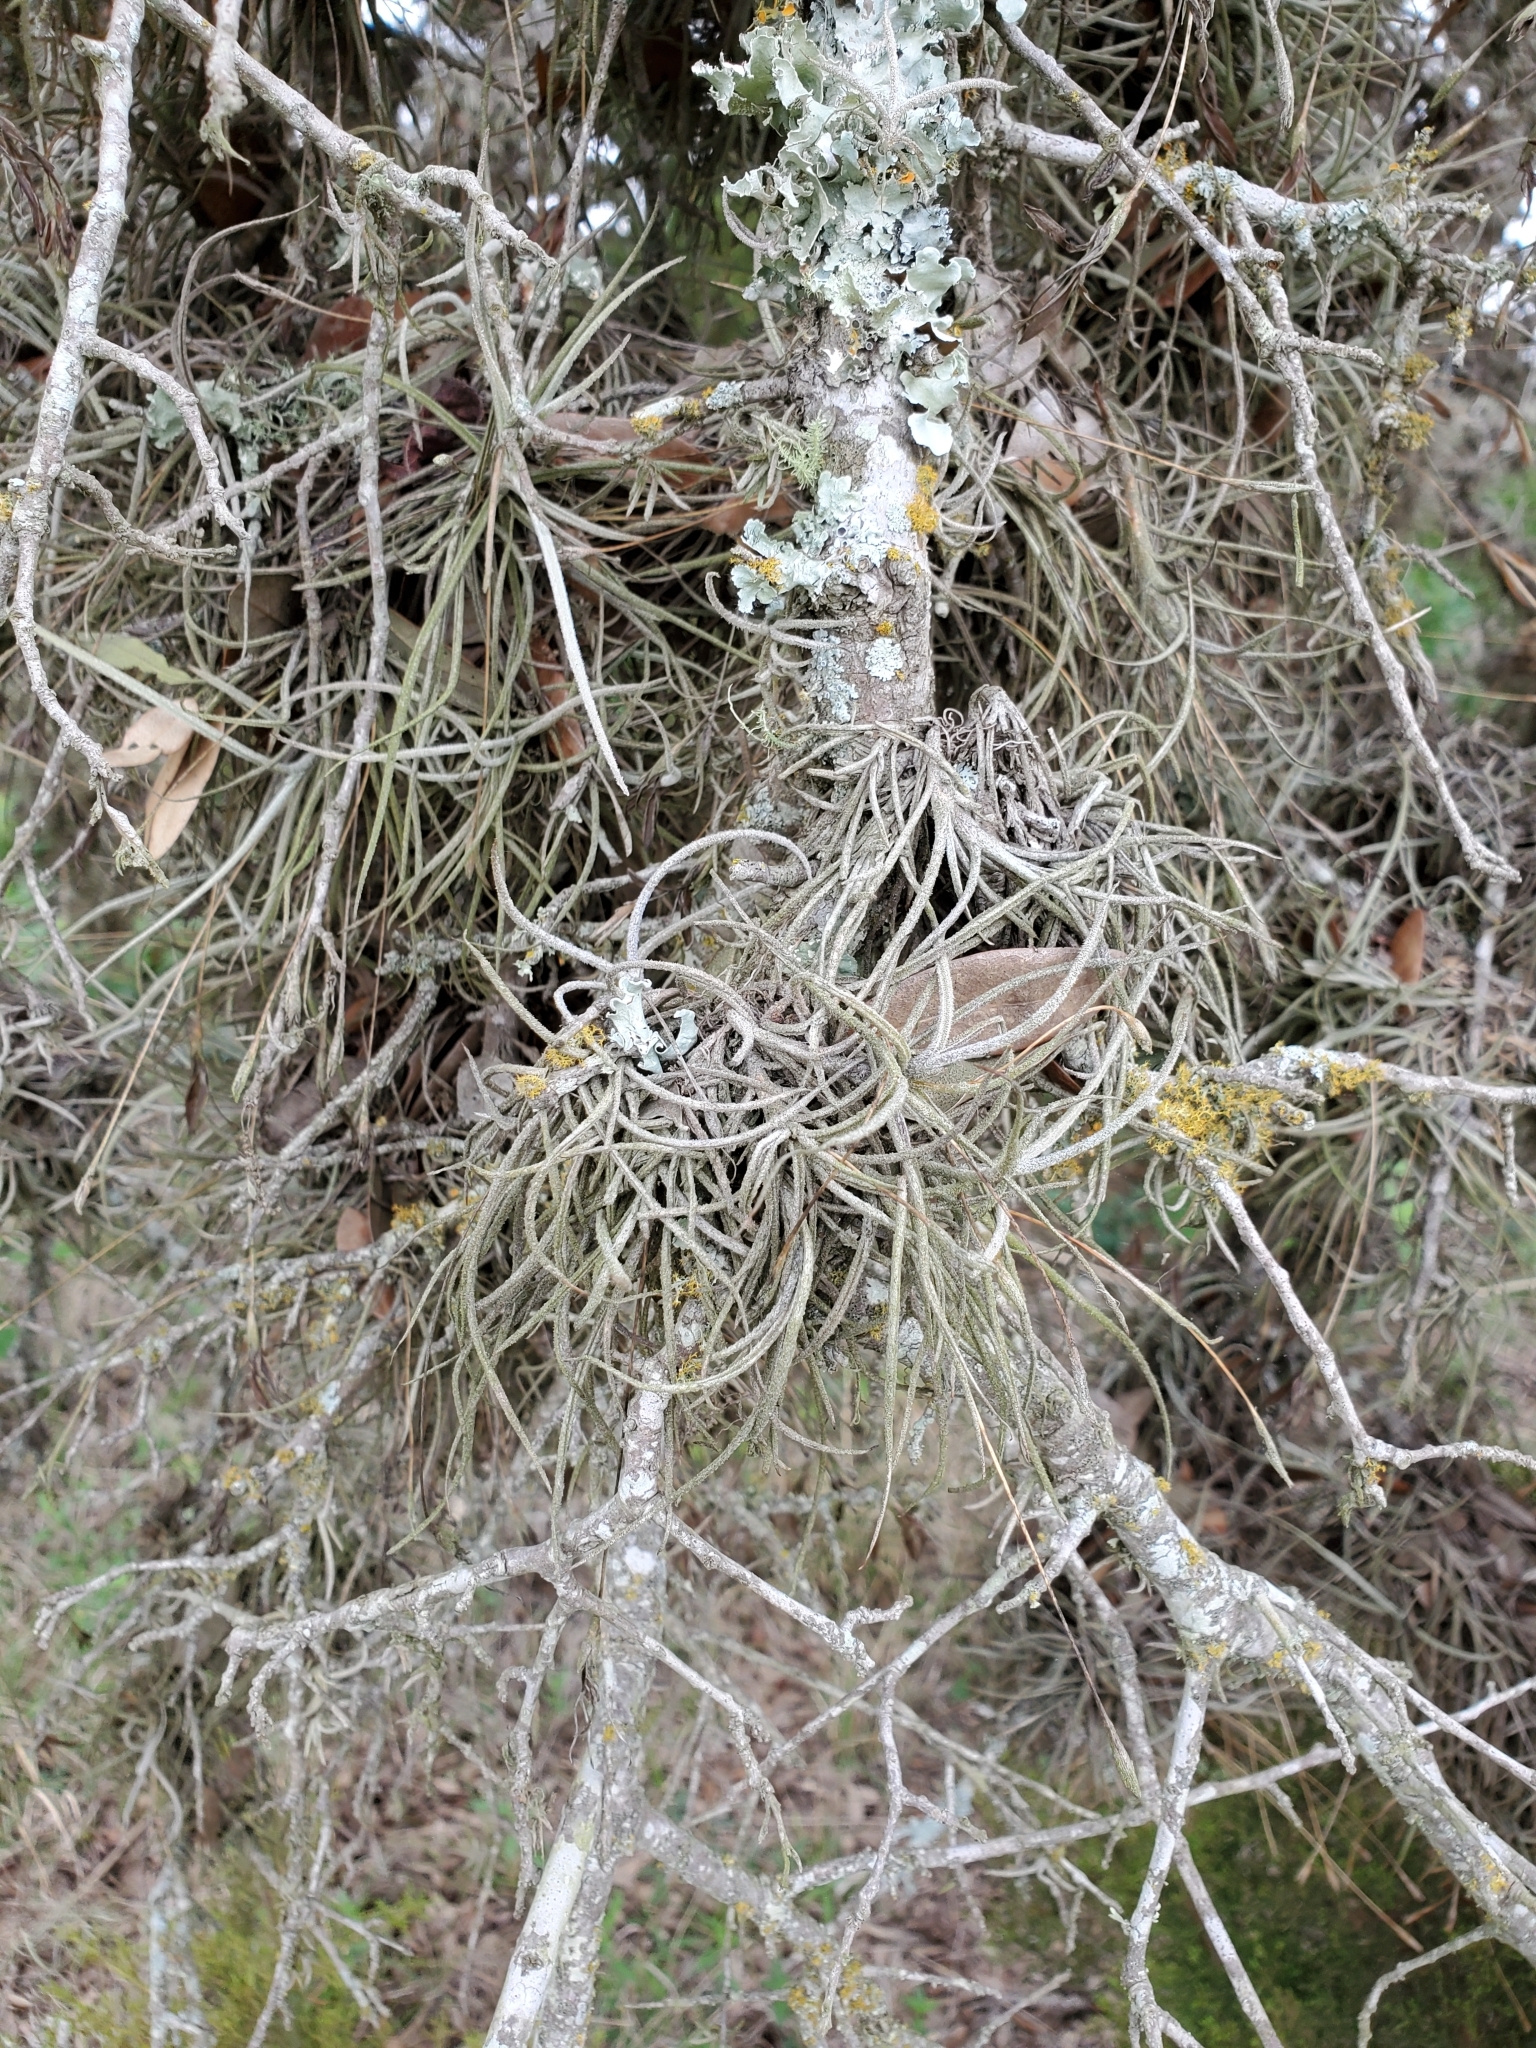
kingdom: Plantae
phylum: Tracheophyta
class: Liliopsida
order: Poales
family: Bromeliaceae
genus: Tillandsia
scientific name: Tillandsia recurvata
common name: Small ballmoss
